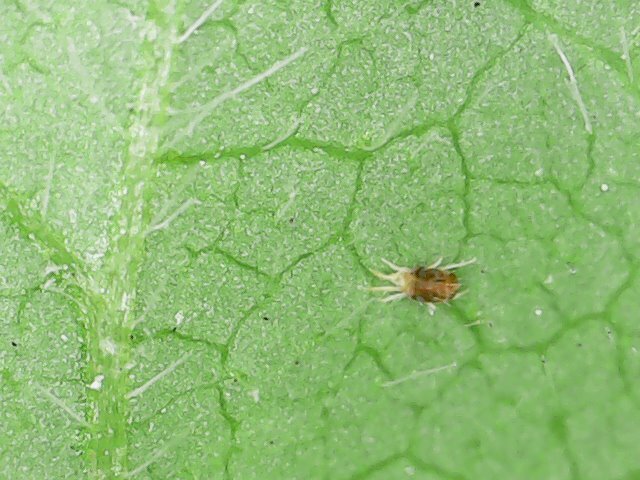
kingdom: Animalia
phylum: Arthropoda
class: Arachnida
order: Trombidiformes
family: Tetranychidae
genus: Tetranychus
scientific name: Tetranychus urticae
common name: Carmine spider mite
